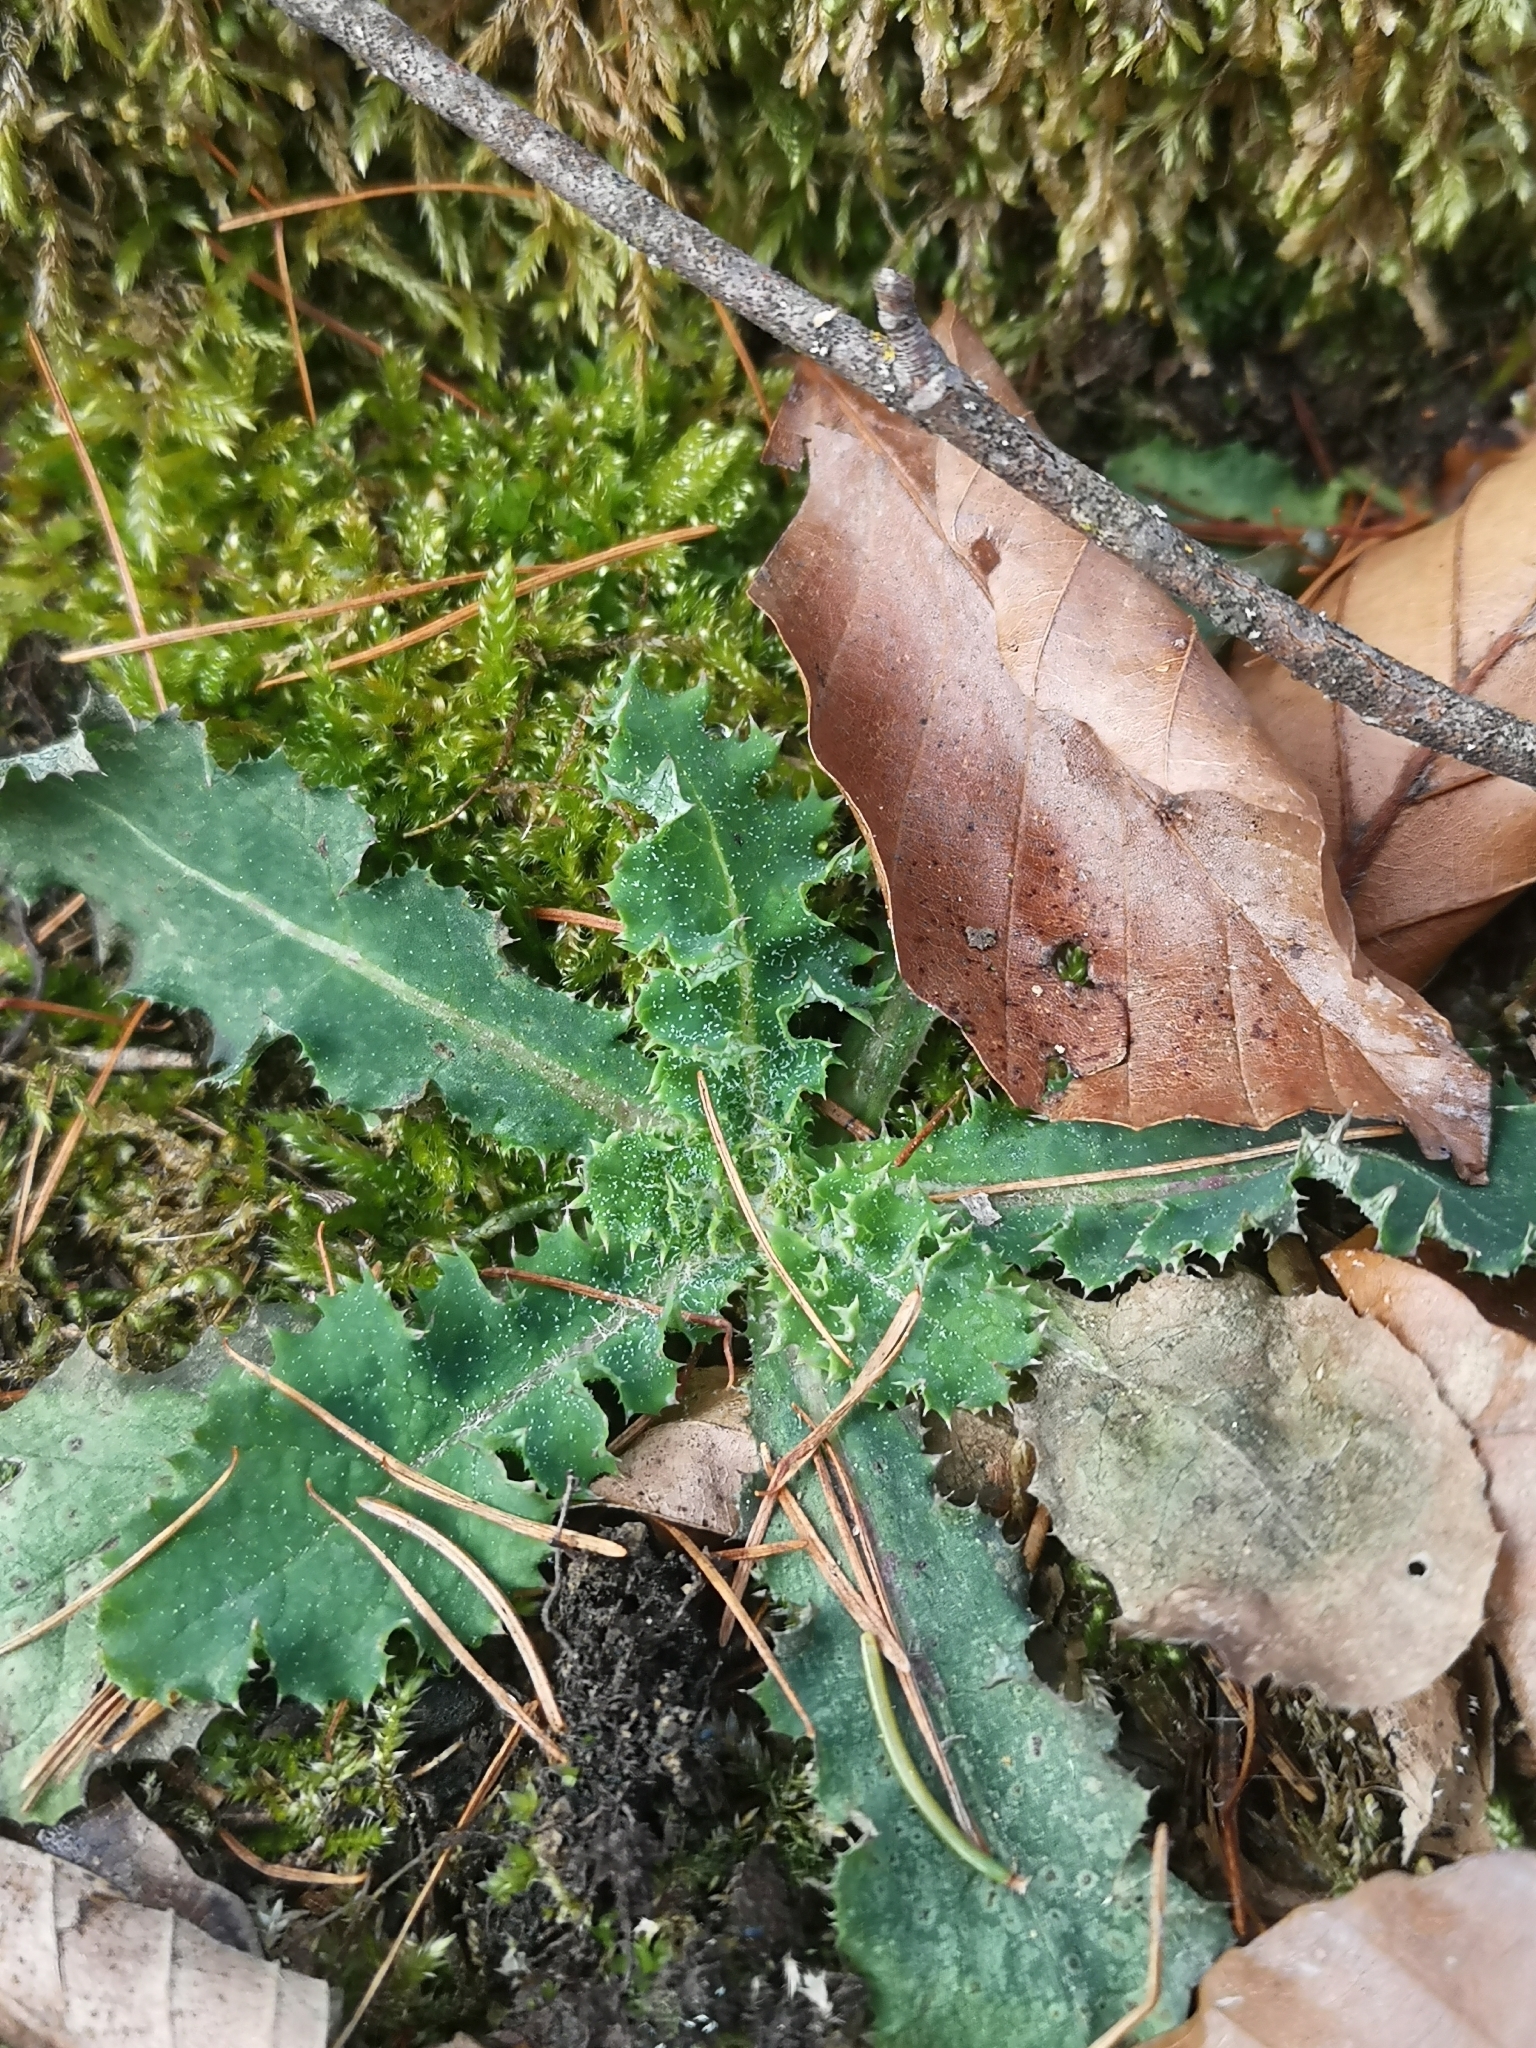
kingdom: Plantae
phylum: Tracheophyta
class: Magnoliopsida
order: Asterales
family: Asteraceae
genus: Sonchus
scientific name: Sonchus asper
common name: Prickly sow-thistle
